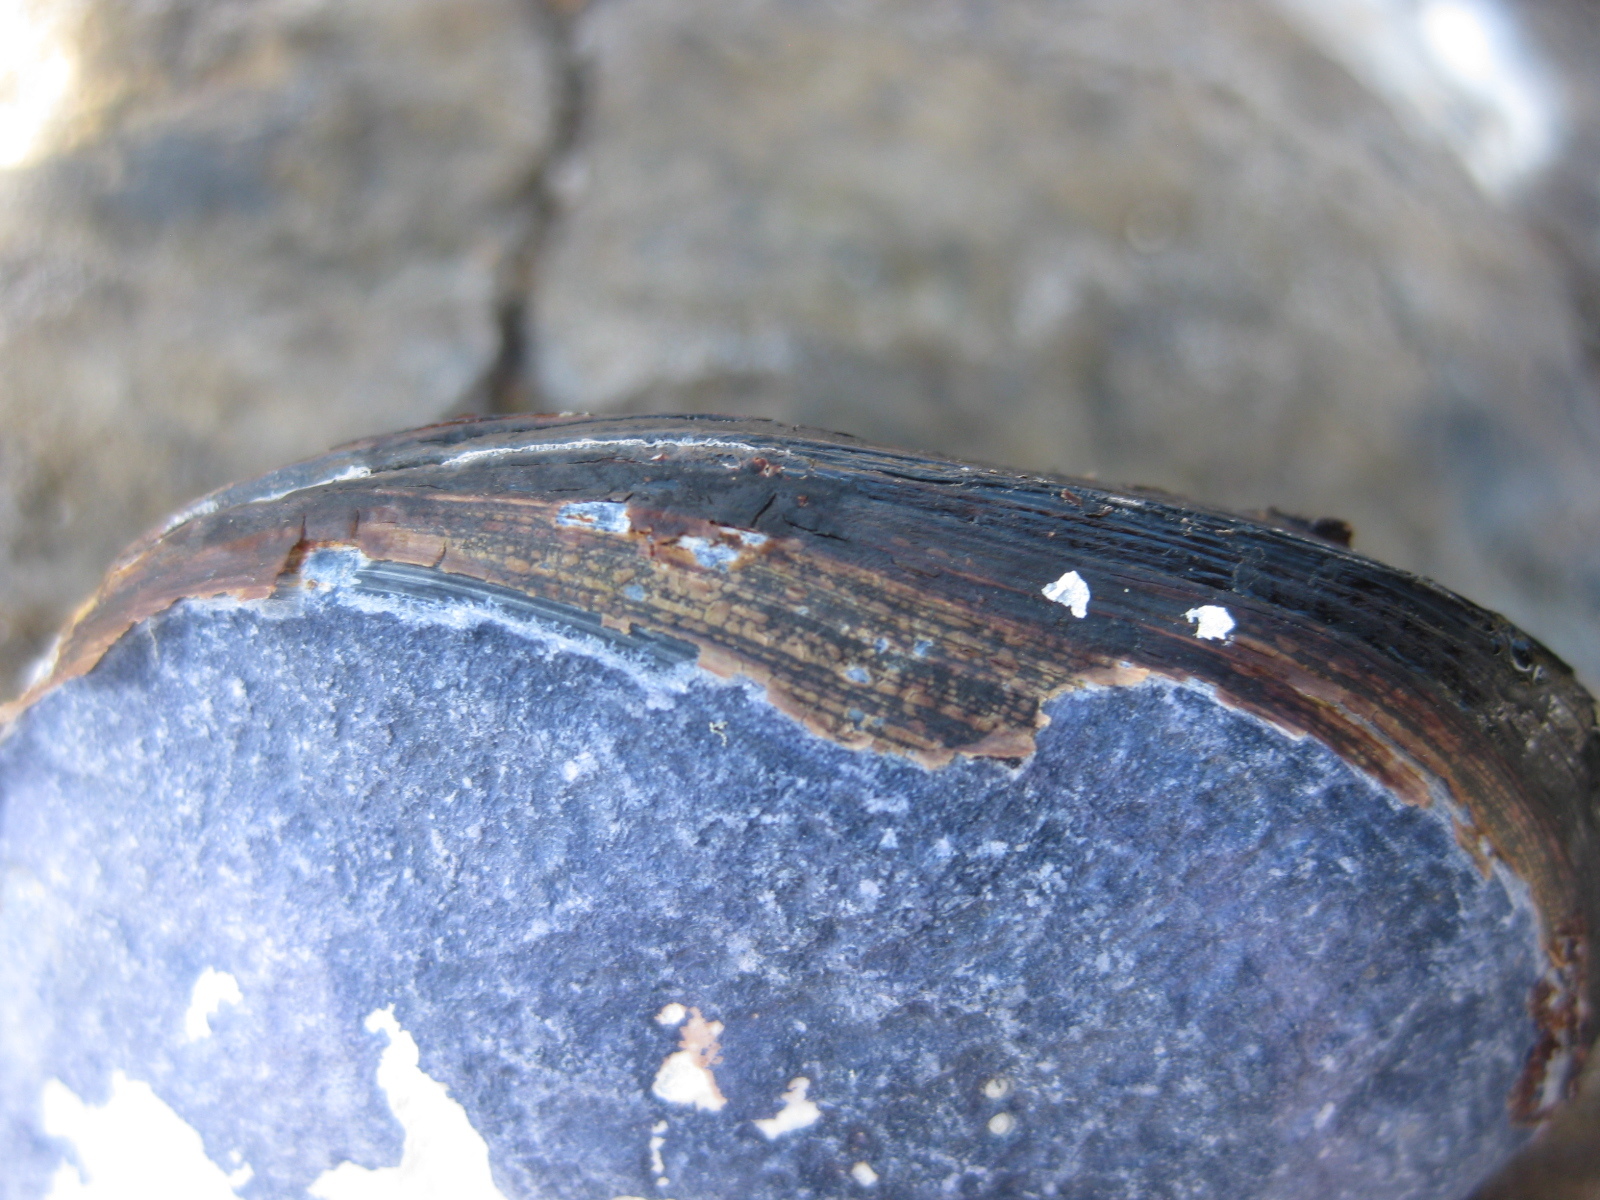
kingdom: Animalia
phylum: Mollusca
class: Bivalvia
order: Mytilida
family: Mytilidae
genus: Mytilus
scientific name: Mytilus planulatus
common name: Australian mussel
